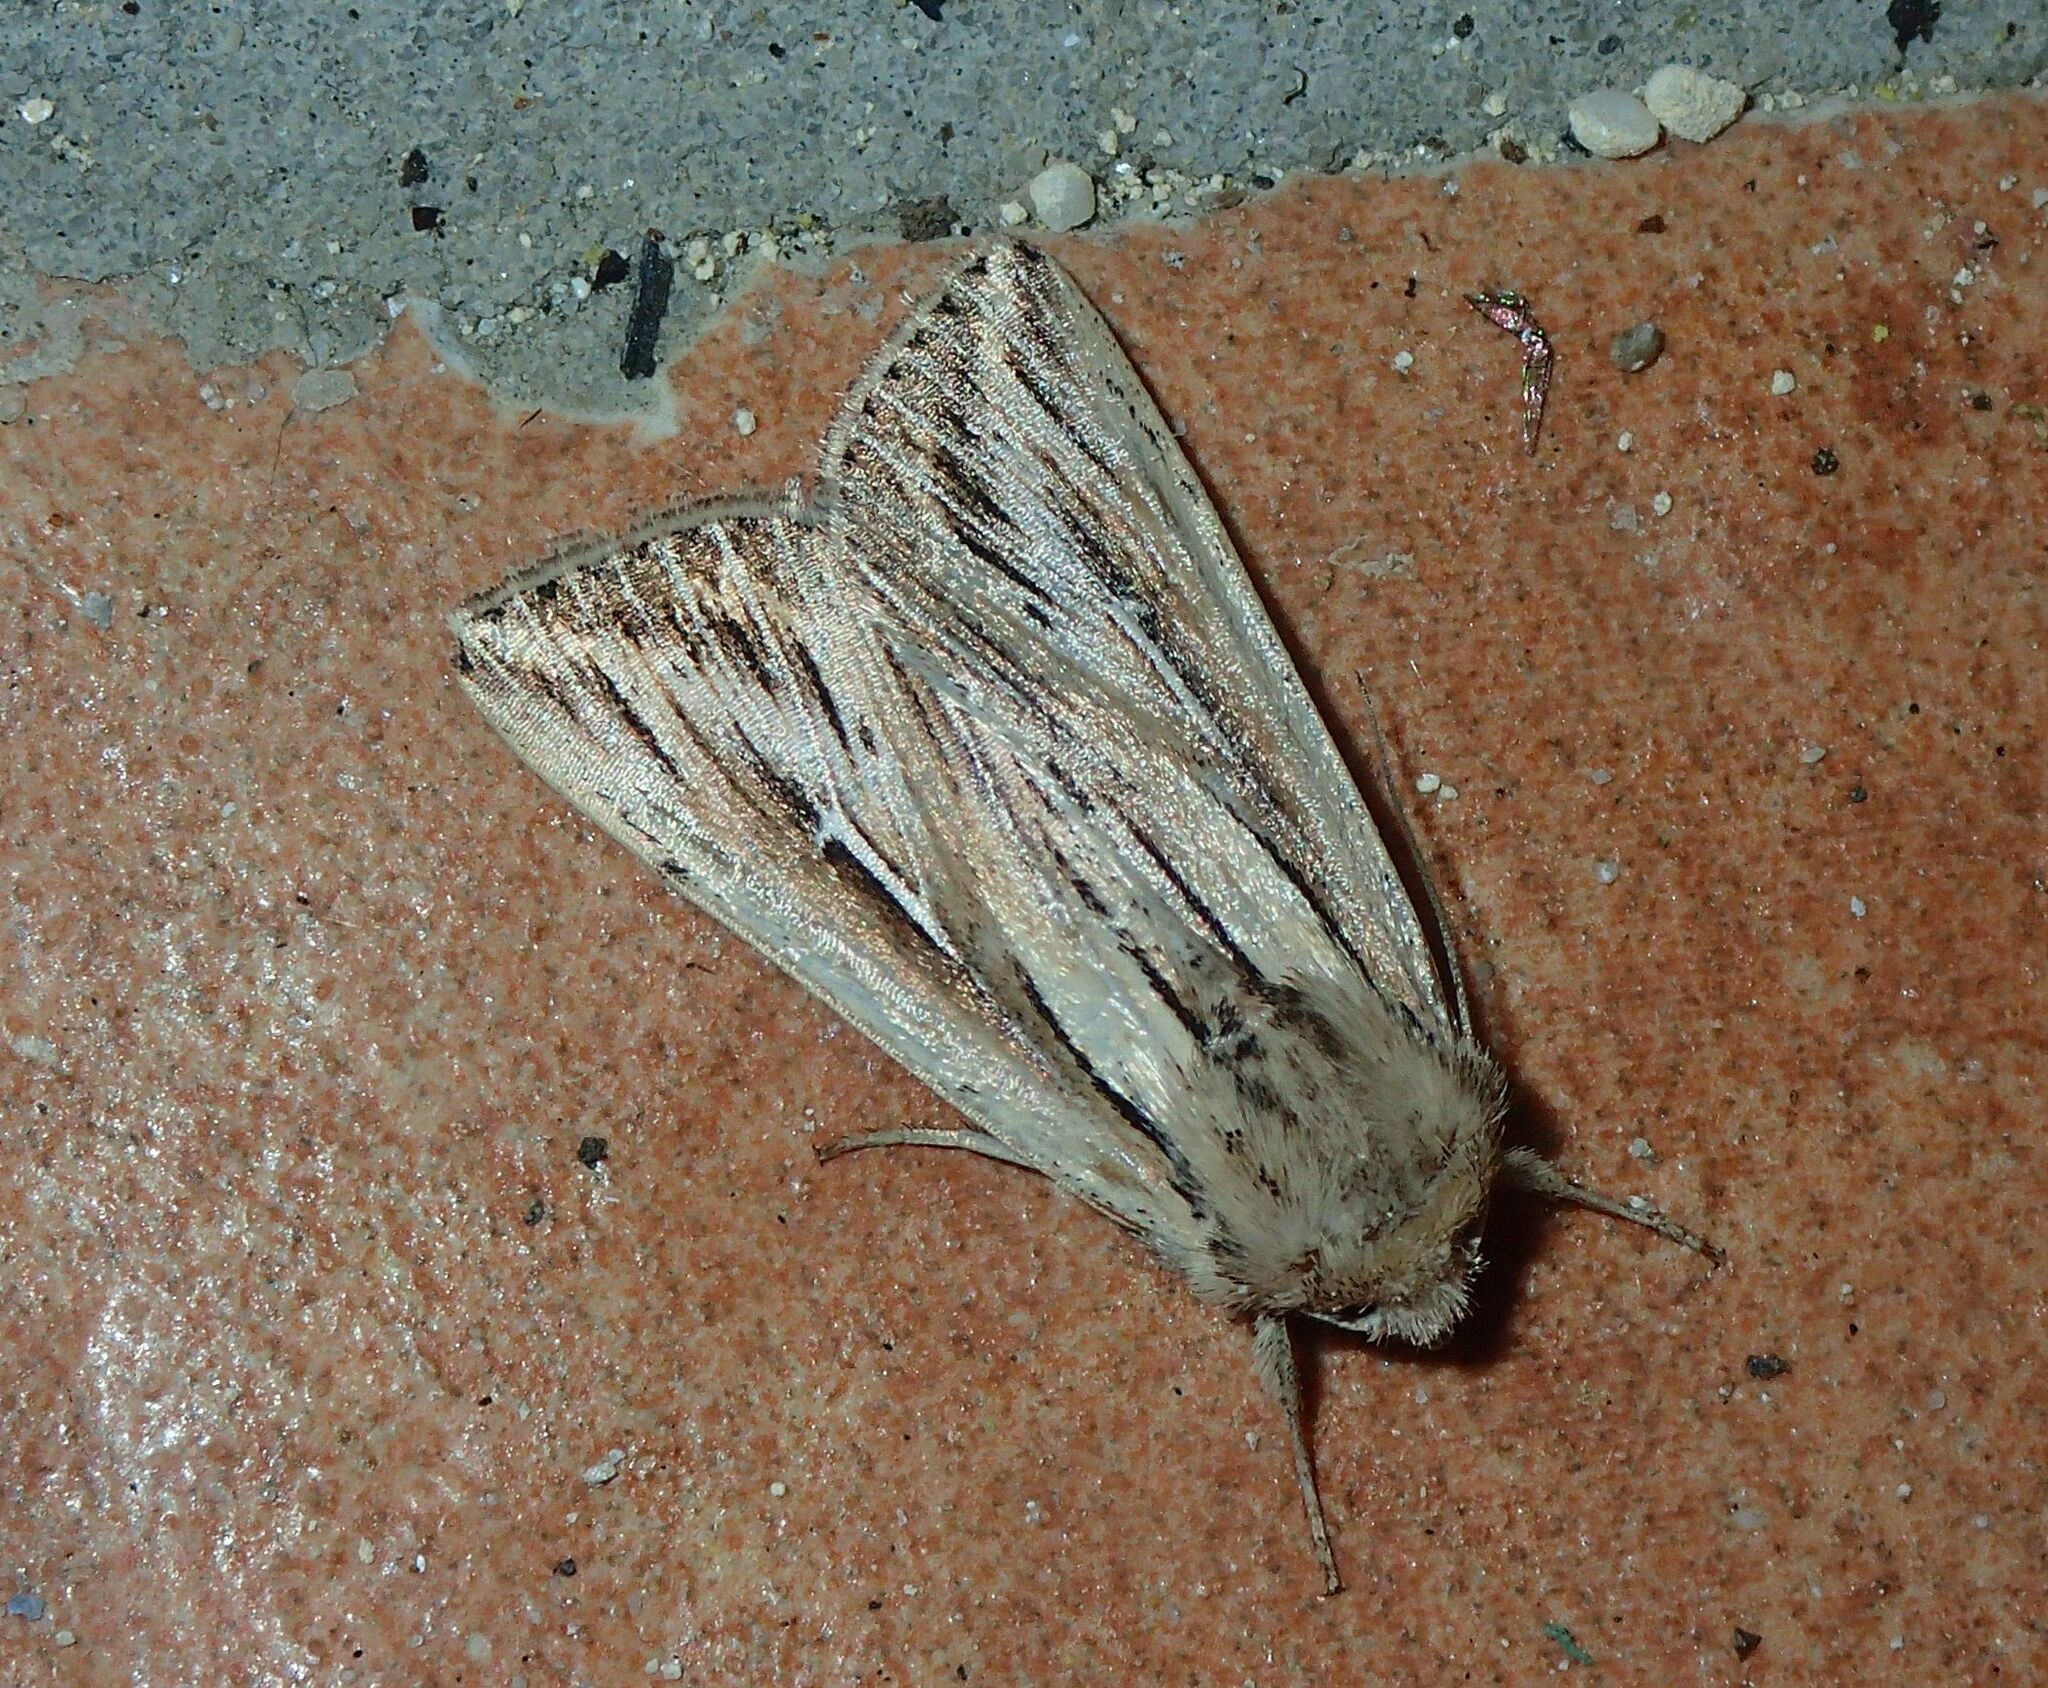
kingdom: Animalia
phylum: Arthropoda
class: Insecta
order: Lepidoptera
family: Noctuidae
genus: Mythimna
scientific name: Mythimna l-album
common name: L-album wainscot
